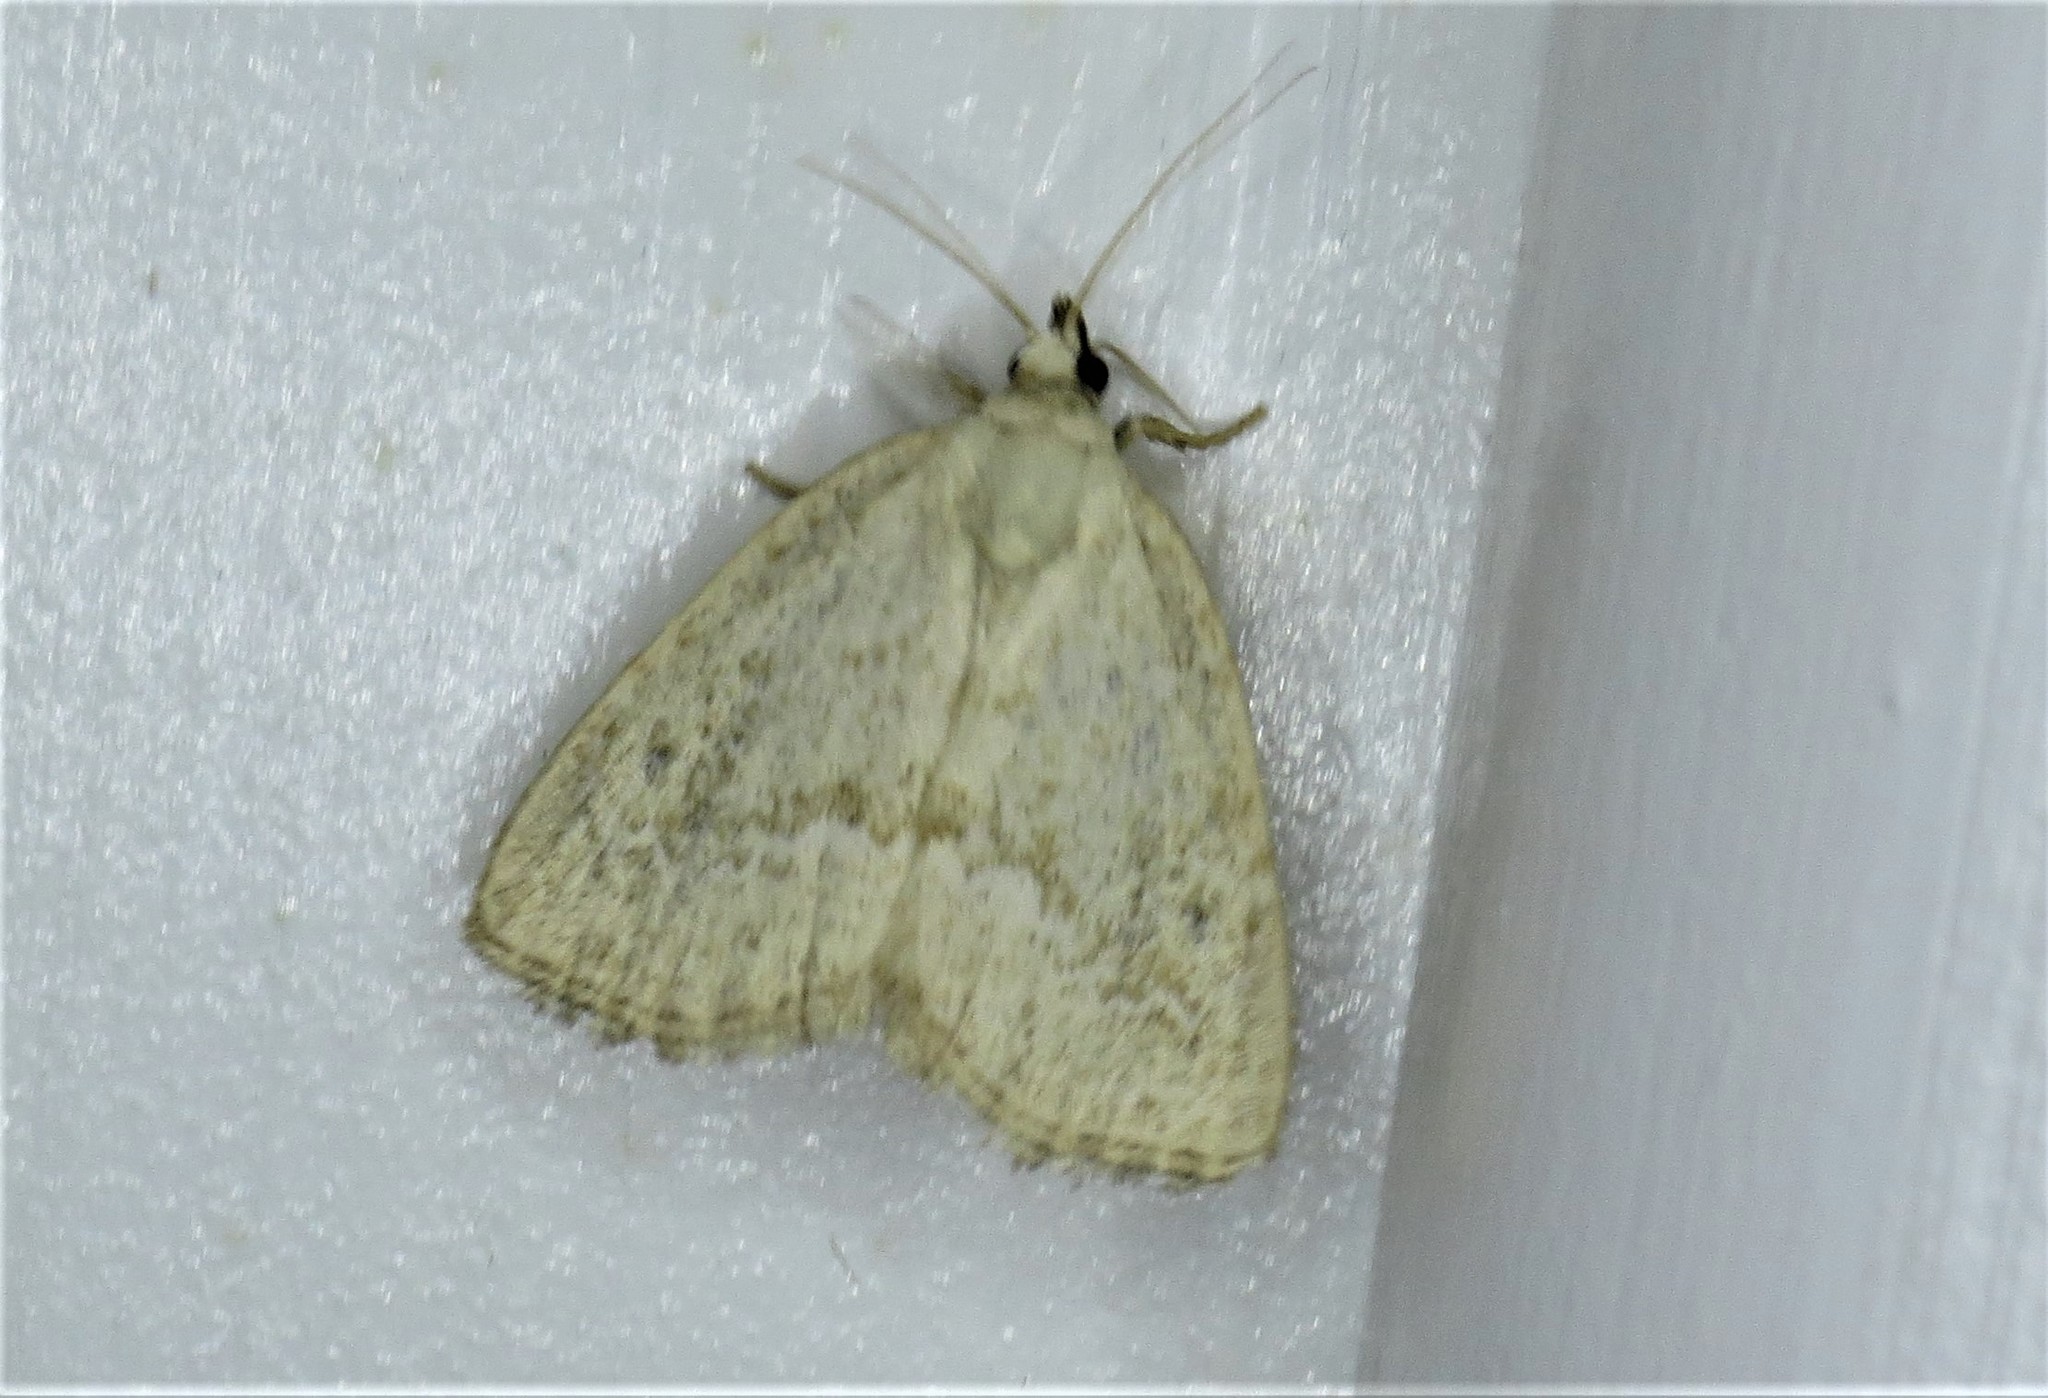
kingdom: Animalia
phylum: Arthropoda
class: Insecta
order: Lepidoptera
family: Noctuidae
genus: Protodeltote
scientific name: Protodeltote albidula
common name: Pale glyph
